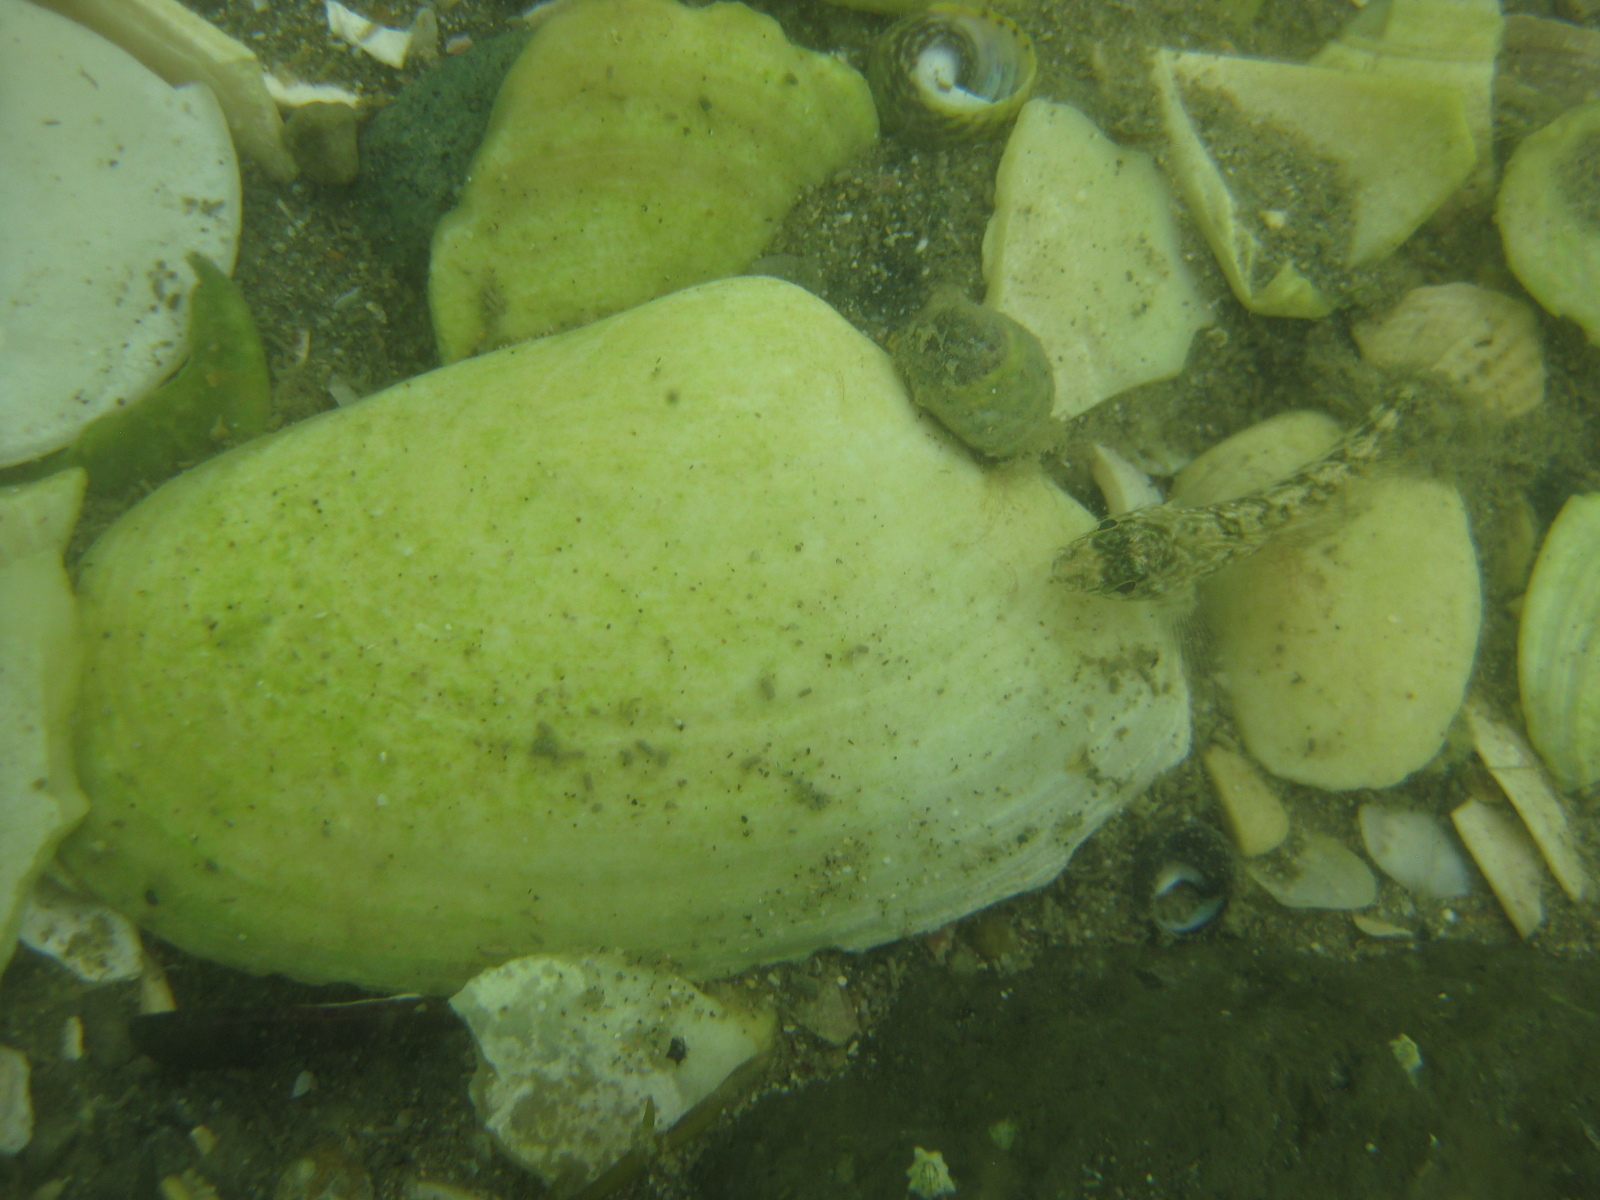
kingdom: Animalia
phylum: Mollusca
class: Bivalvia
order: Venerida
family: Mesodesmatidae
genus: Paphies
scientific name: Paphies subtriangulata
